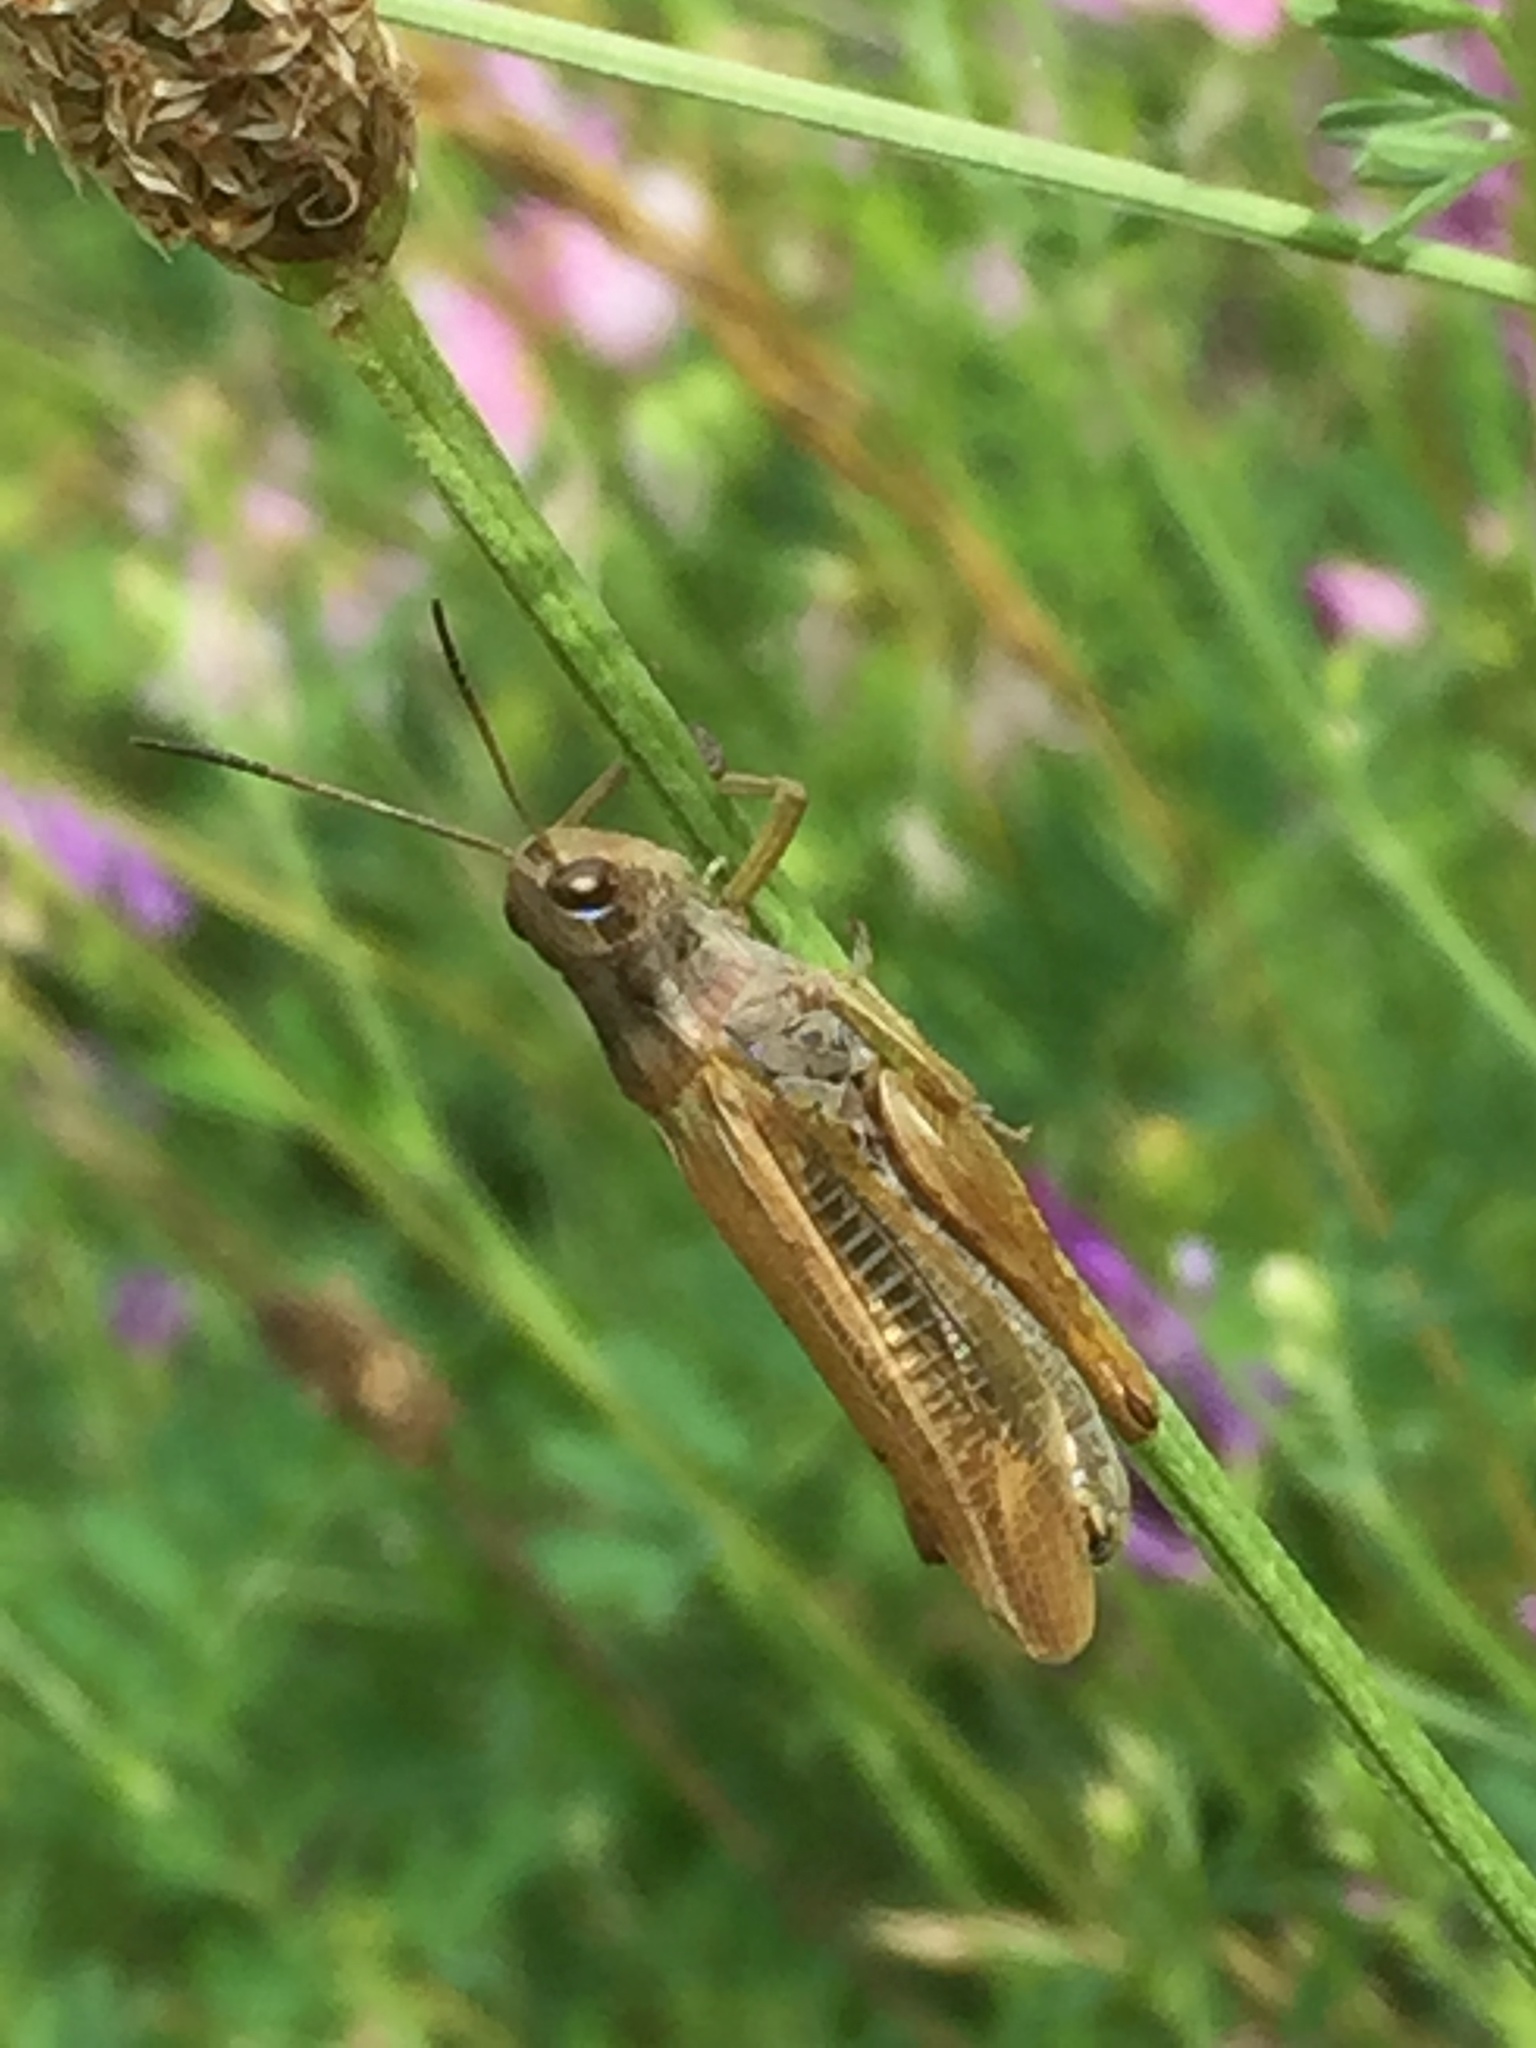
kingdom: Animalia
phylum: Arthropoda
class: Insecta
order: Orthoptera
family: Acrididae
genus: Stauroderus
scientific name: Stauroderus scalaris
